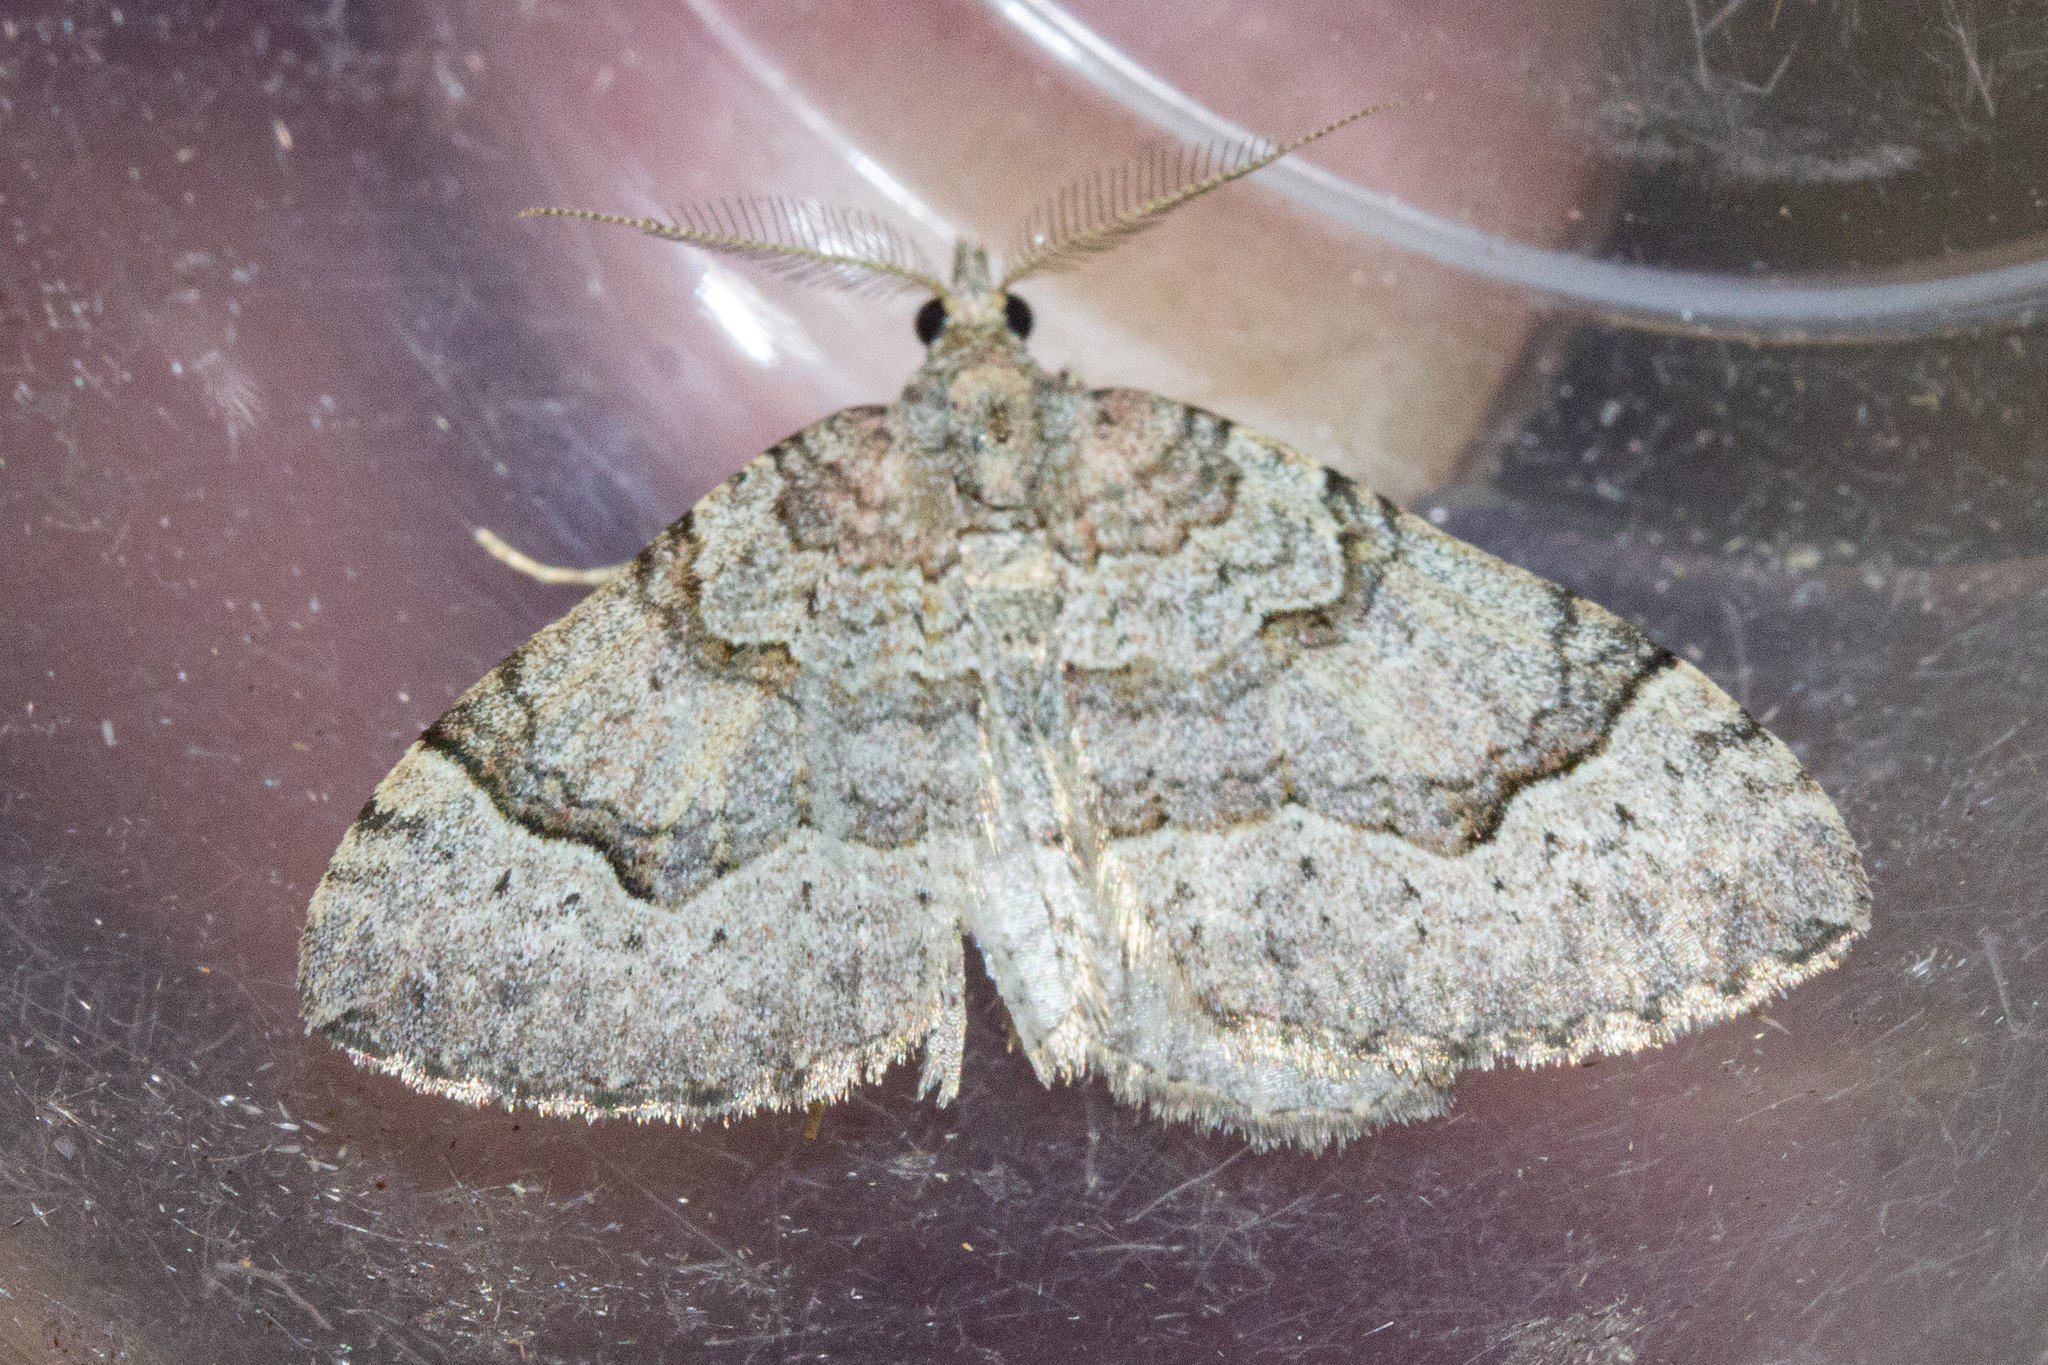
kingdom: Animalia
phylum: Arthropoda
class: Insecta
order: Lepidoptera
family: Geometridae
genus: Epyaxa
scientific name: Epyaxa rosearia
